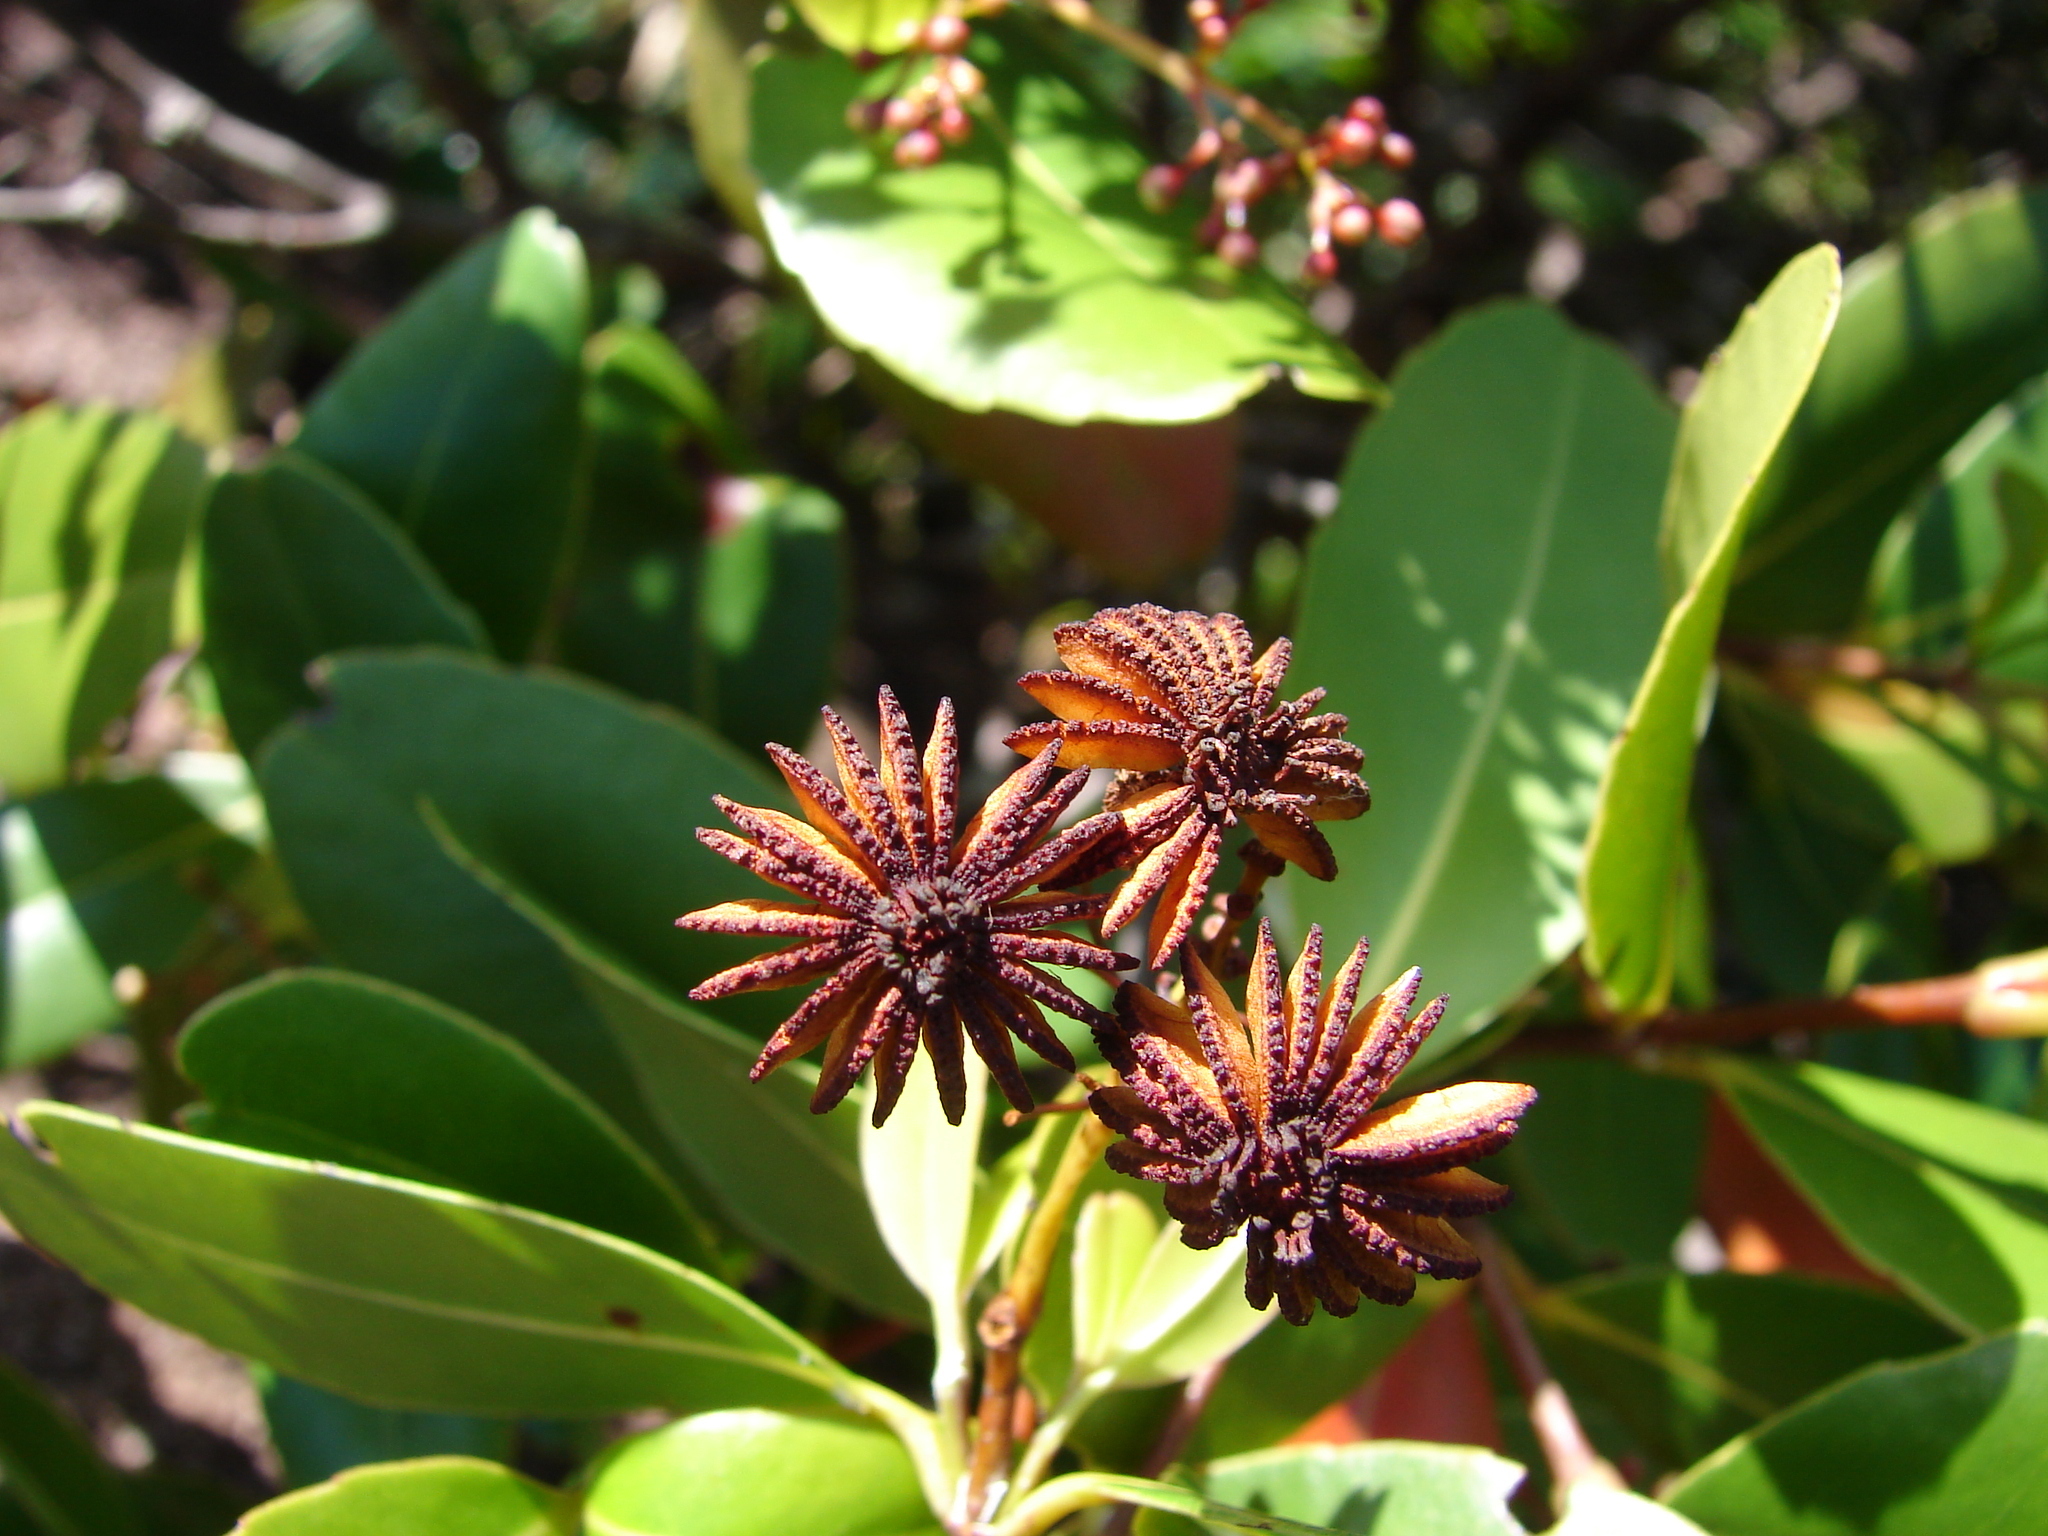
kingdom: Plantae
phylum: Tracheophyta
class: Magnoliopsida
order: Malpighiales
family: Medusagynaceae
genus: Medusagyne
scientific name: Medusagyne oppositifolia
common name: Jellyfish tree
